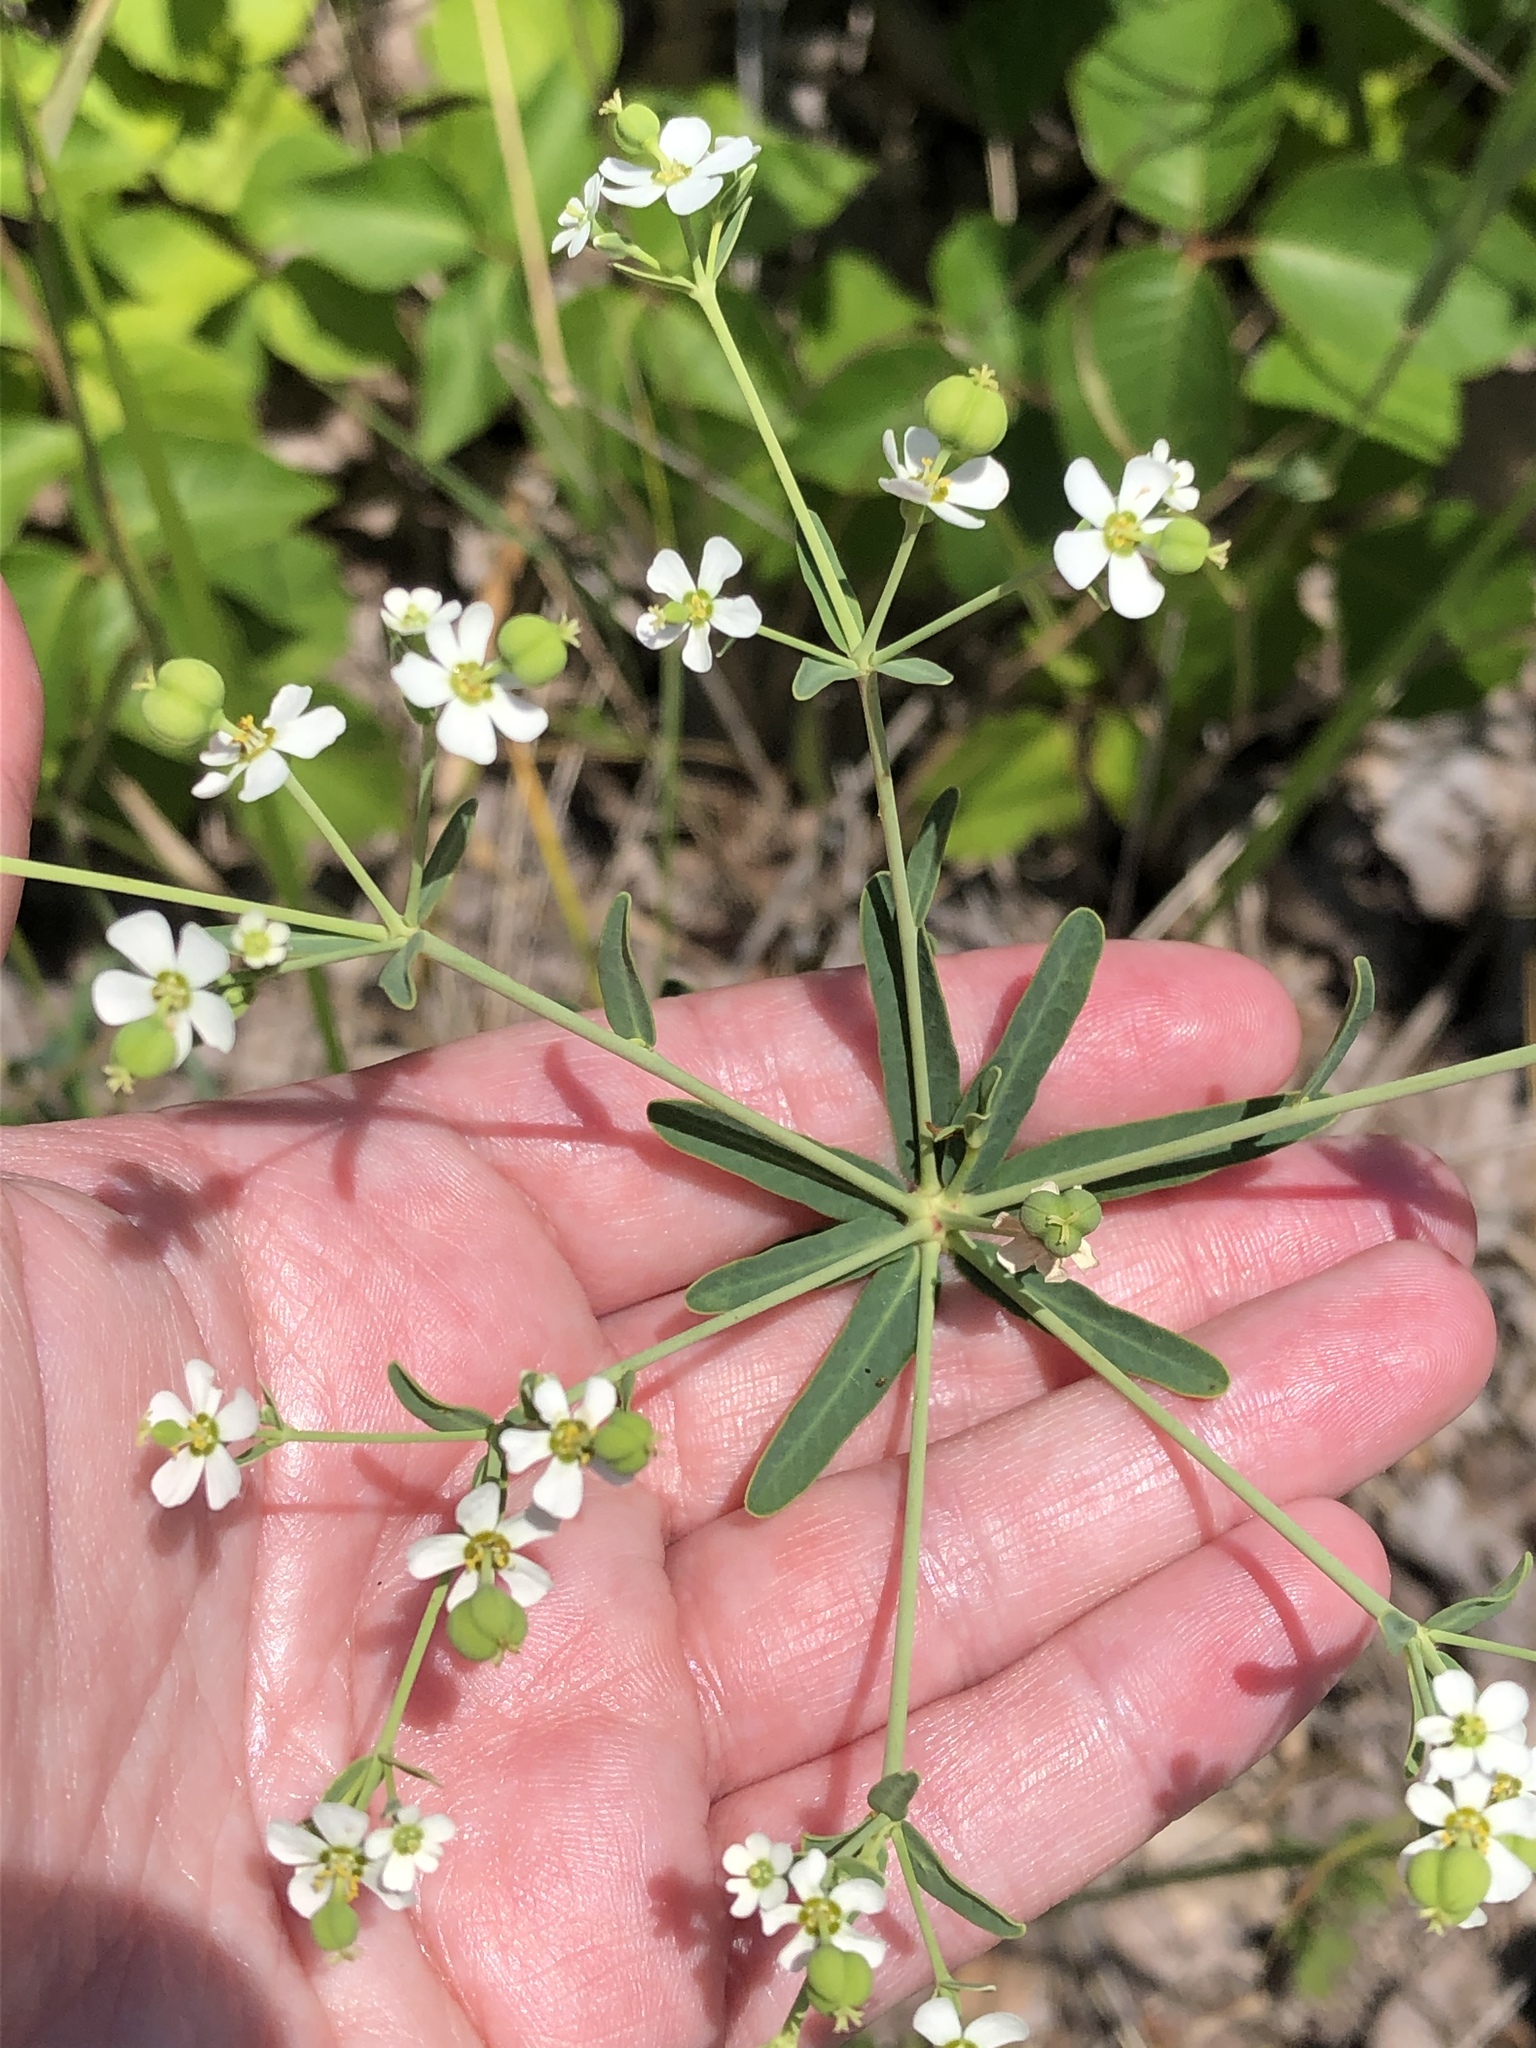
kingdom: Plantae
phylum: Tracheophyta
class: Magnoliopsida
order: Malpighiales
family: Euphorbiaceae
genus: Euphorbia
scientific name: Euphorbia corollata
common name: Flowering spurge
